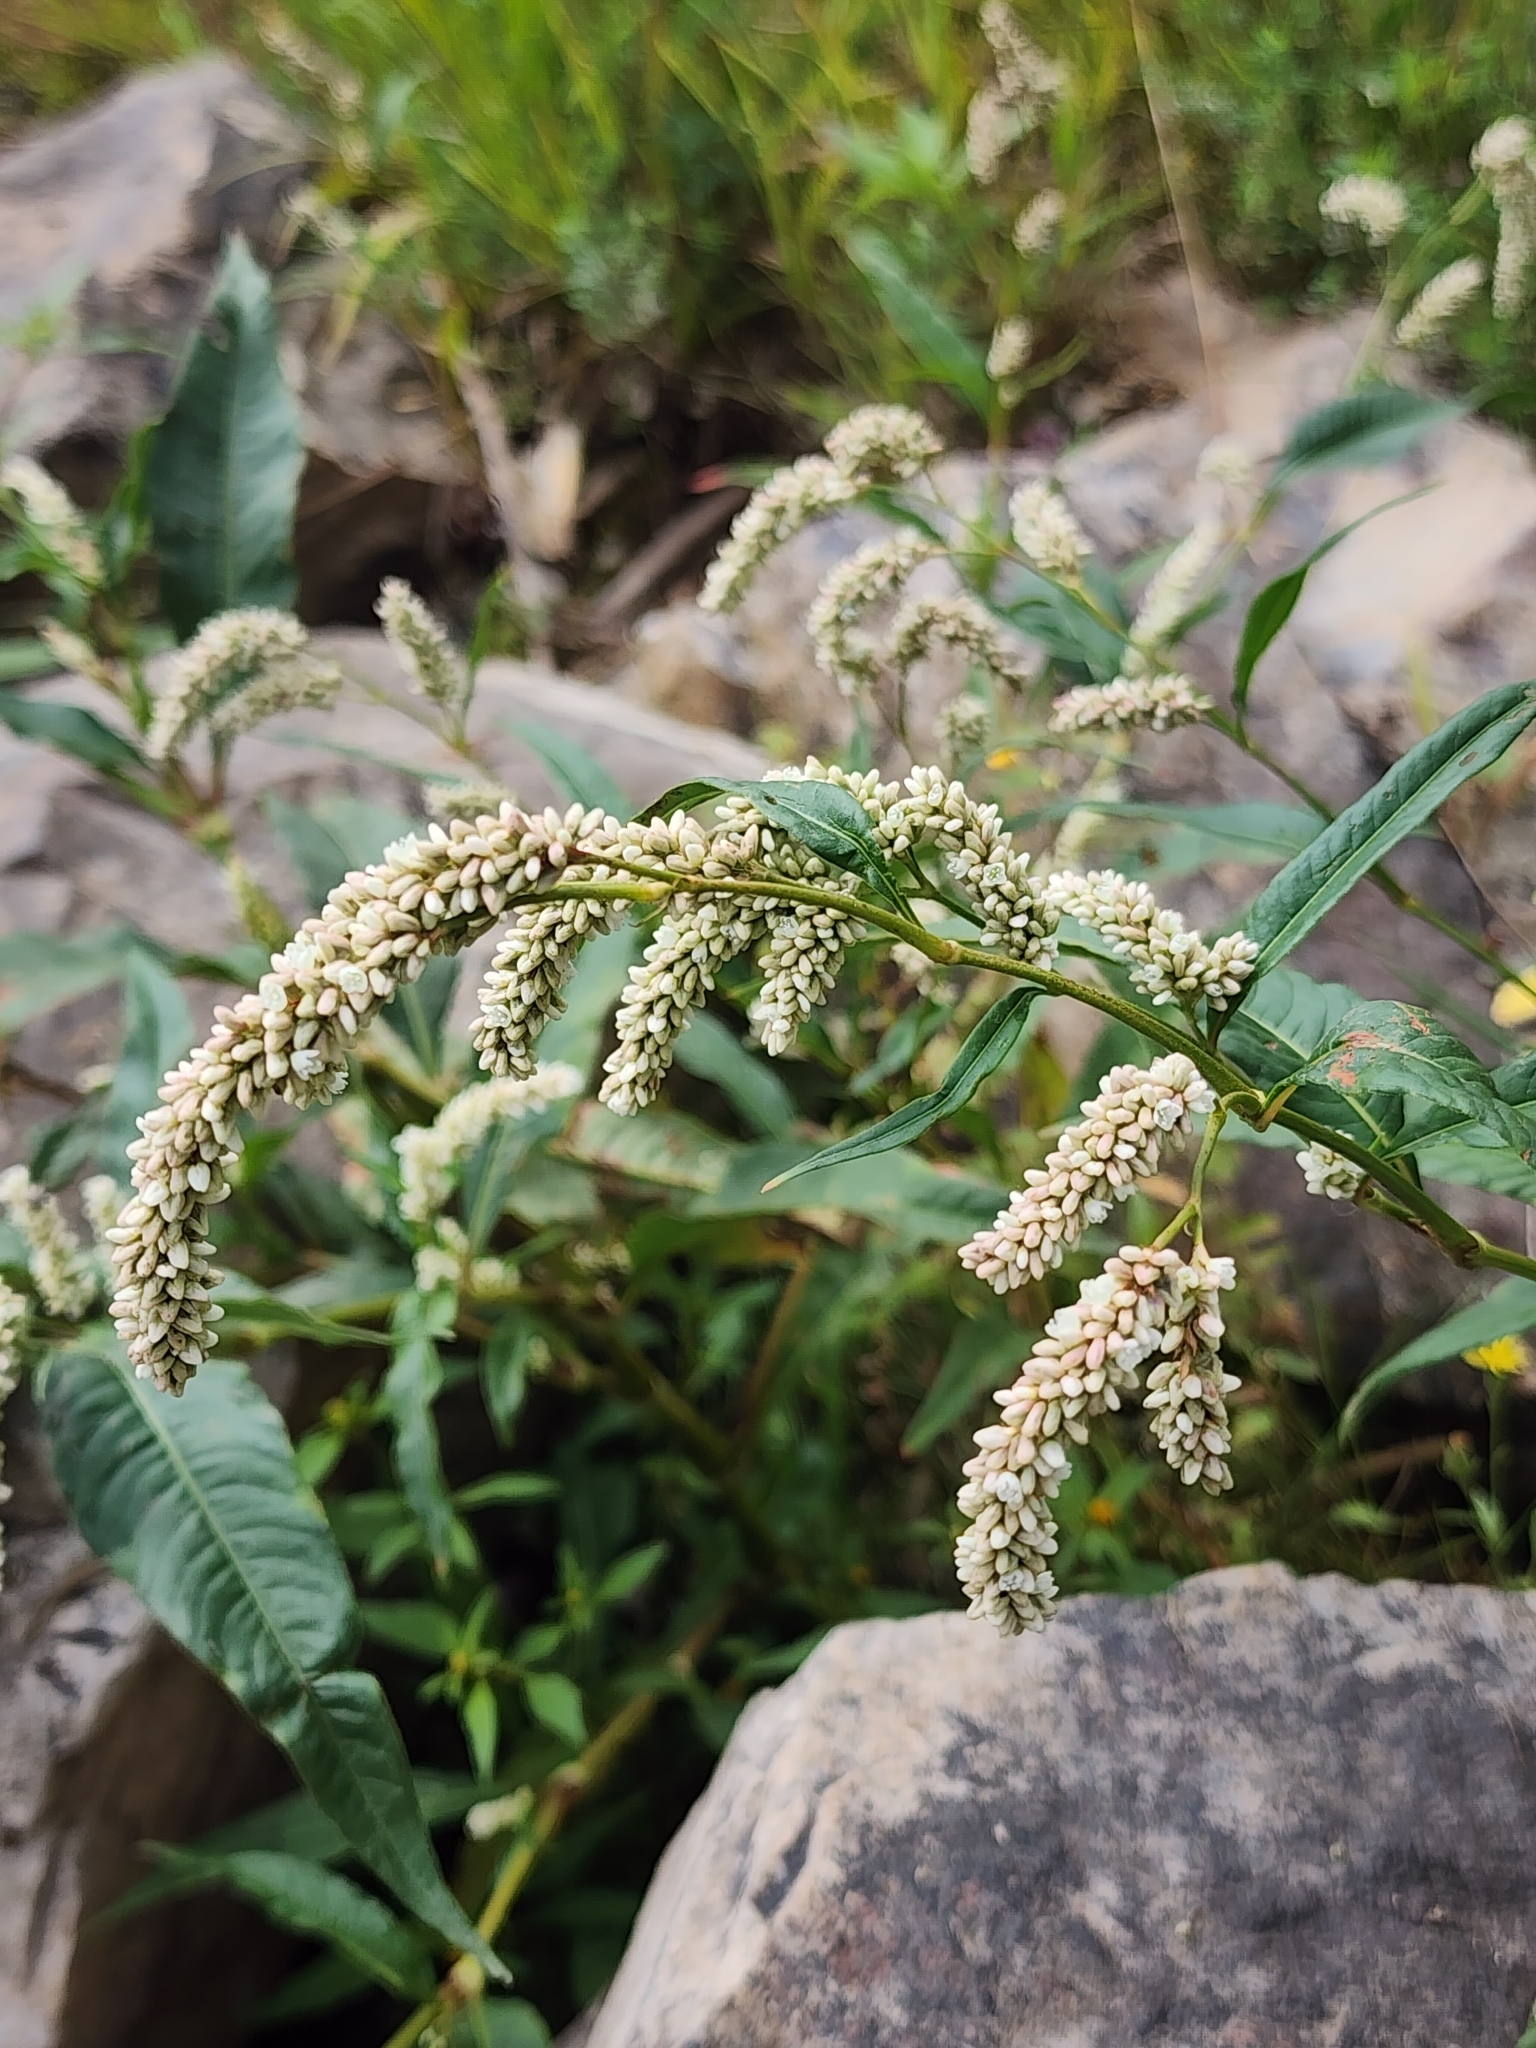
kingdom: Plantae
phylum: Tracheophyta
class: Magnoliopsida
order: Caryophyllales
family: Polygonaceae
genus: Persicaria
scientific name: Persicaria lapathifolia
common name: Curlytop knotweed
